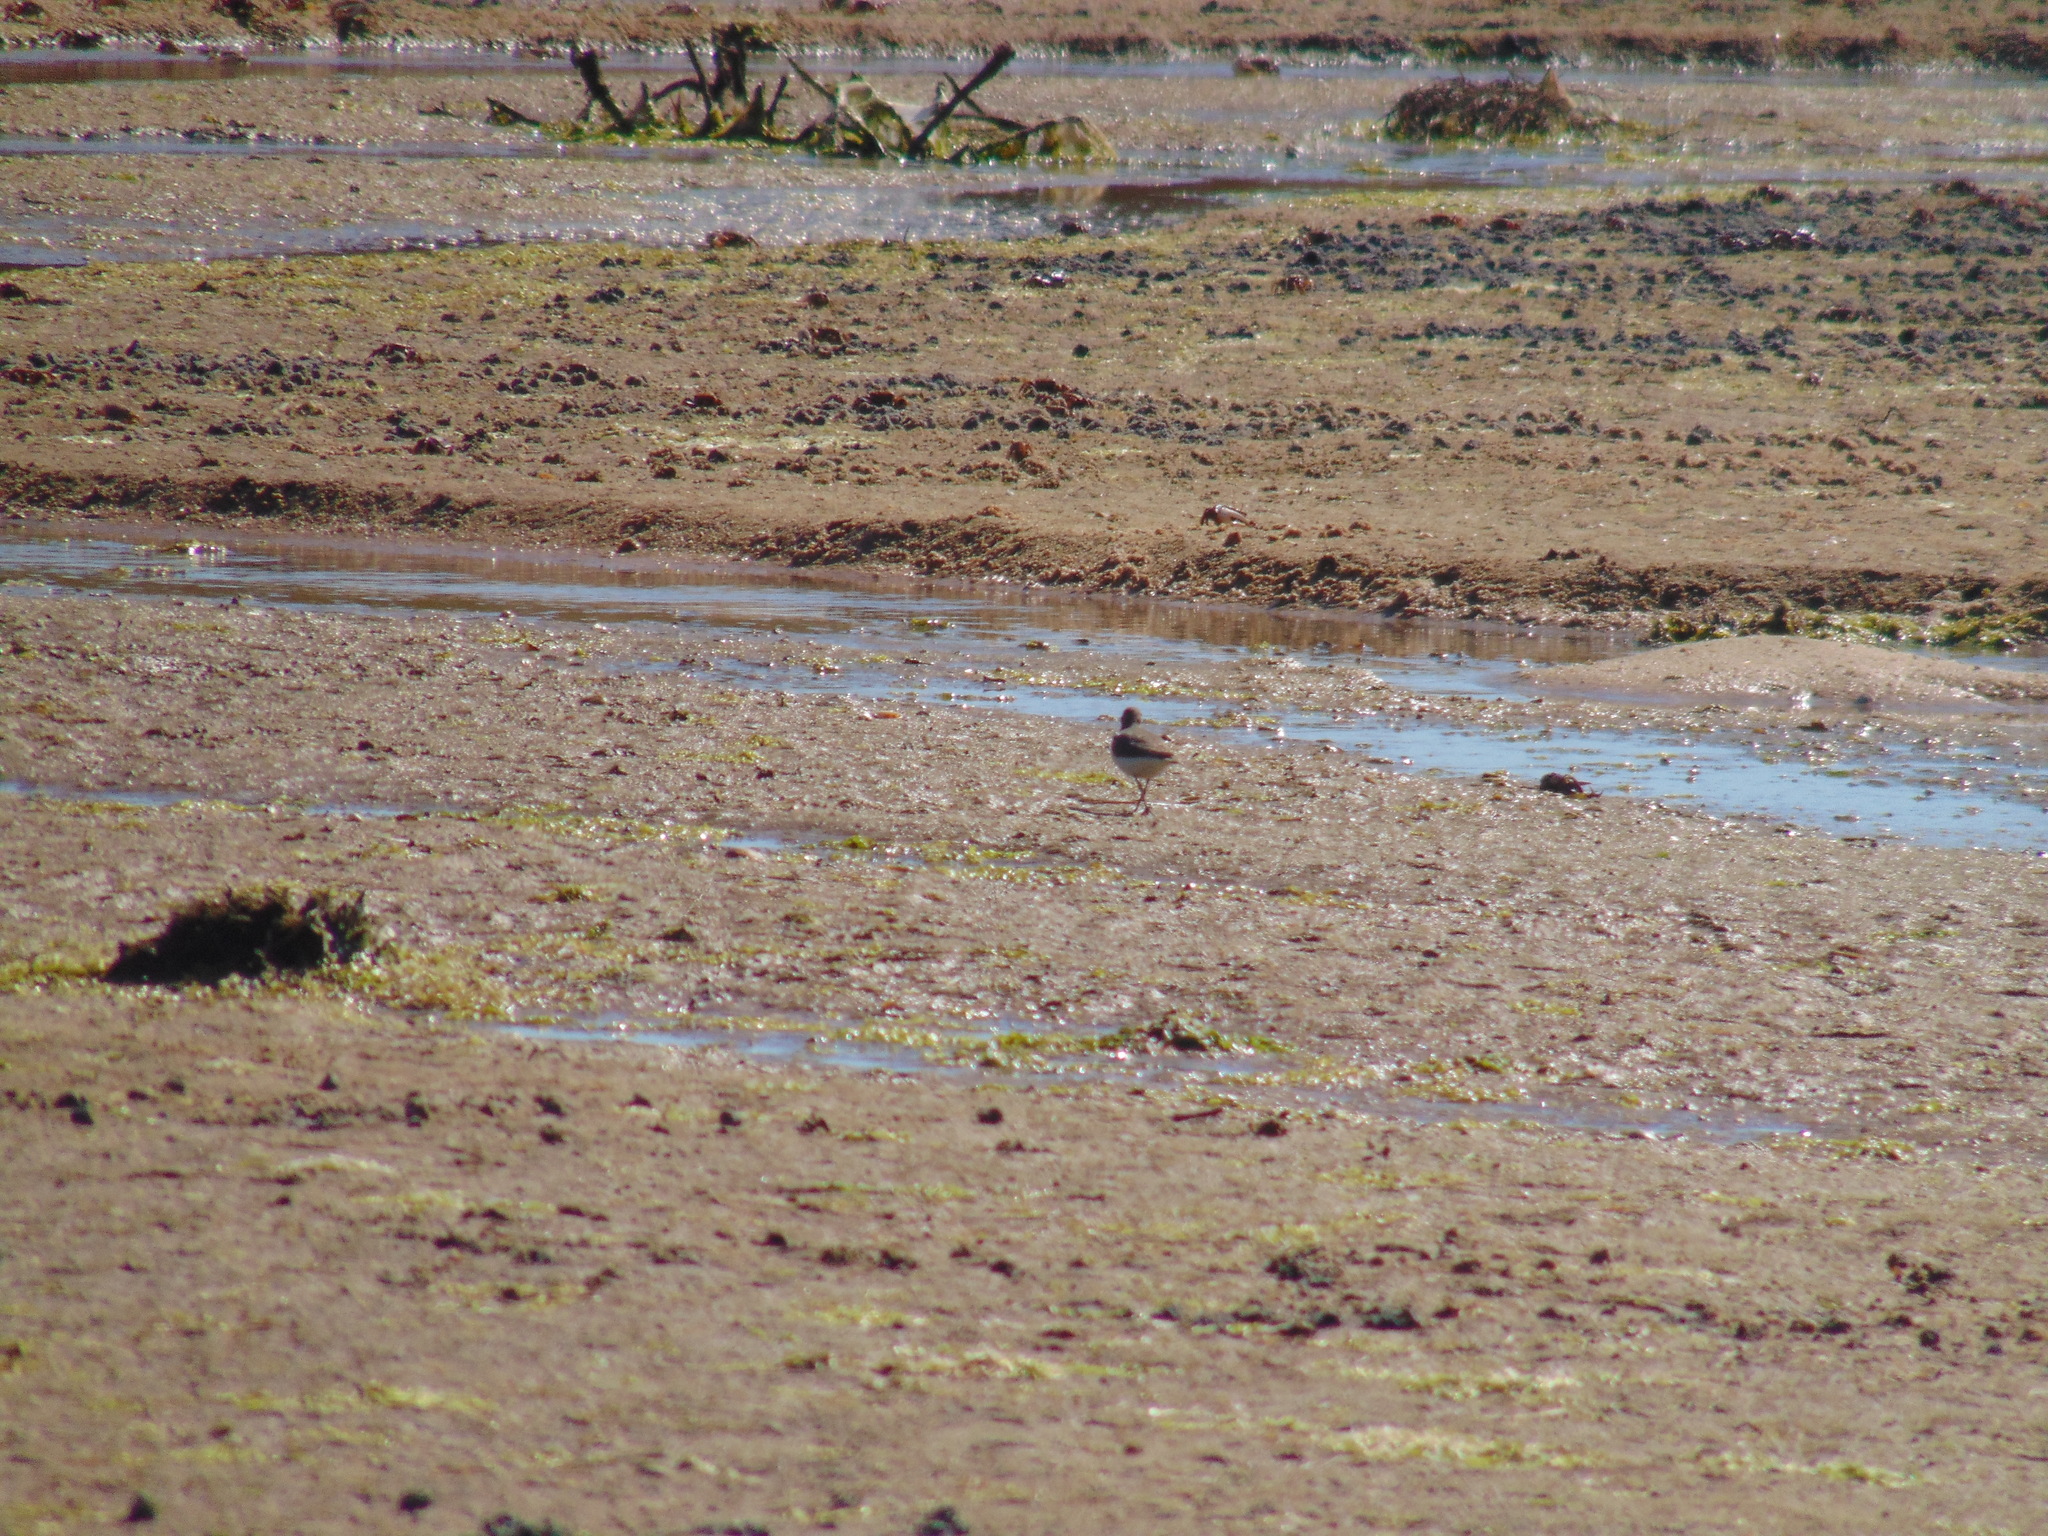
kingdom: Animalia
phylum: Chordata
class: Aves
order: Charadriiformes
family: Scolopacidae
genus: Tringa
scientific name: Tringa totanus
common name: Common redshank
